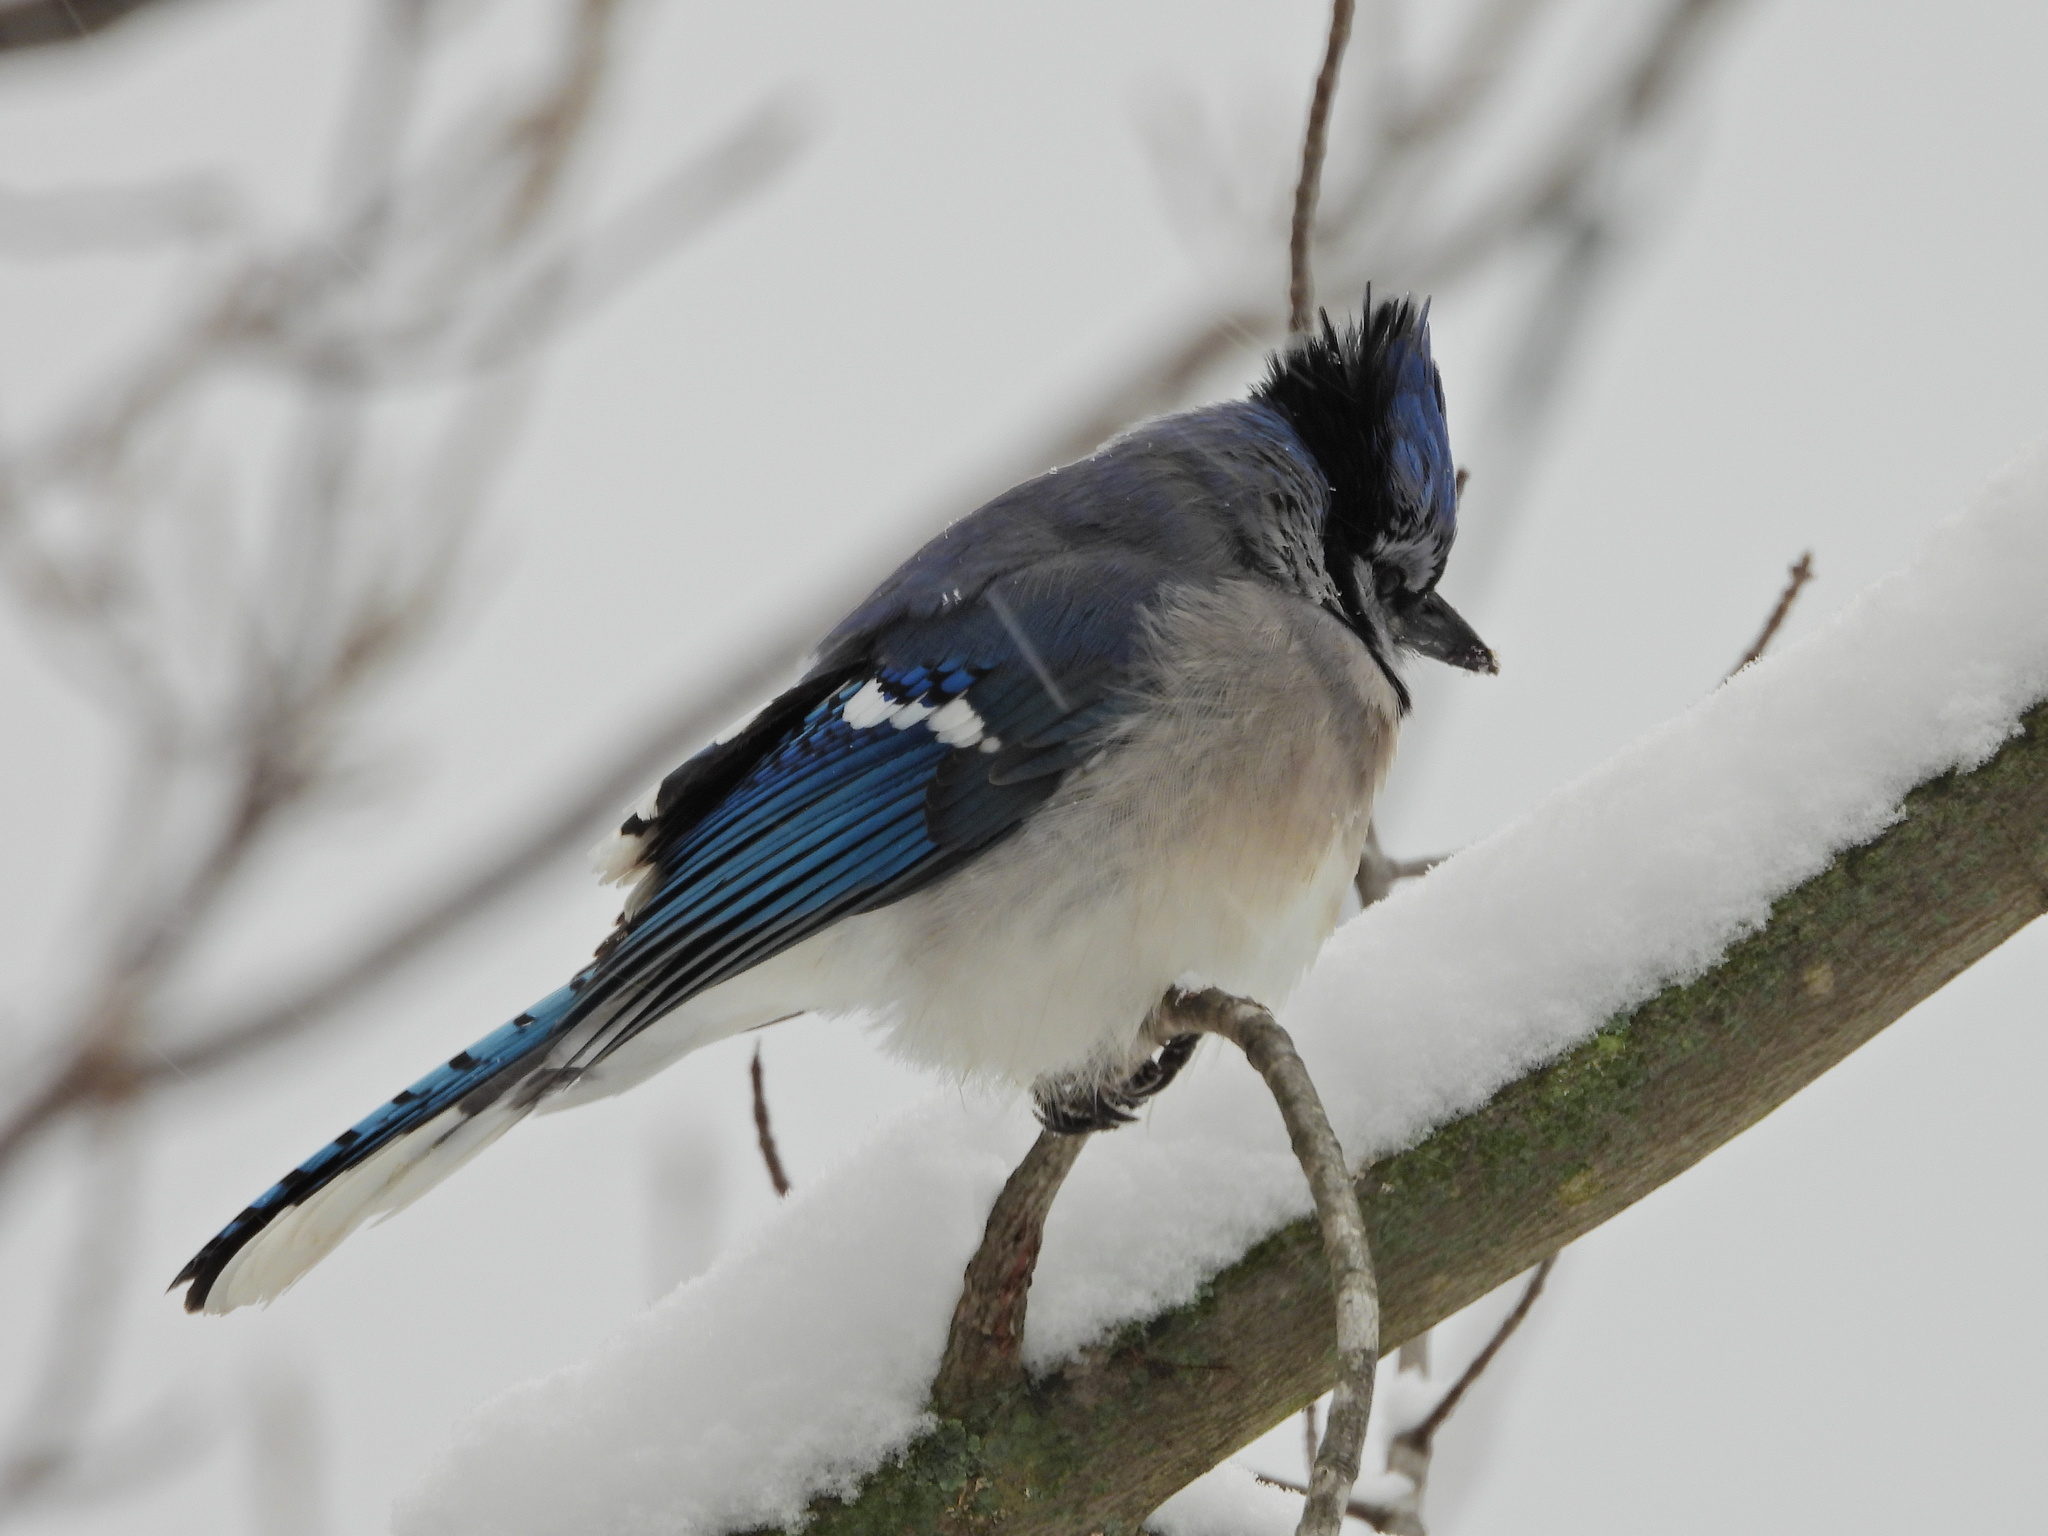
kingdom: Animalia
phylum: Chordata
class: Aves
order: Passeriformes
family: Corvidae
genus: Cyanocitta
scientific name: Cyanocitta cristata
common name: Blue jay
